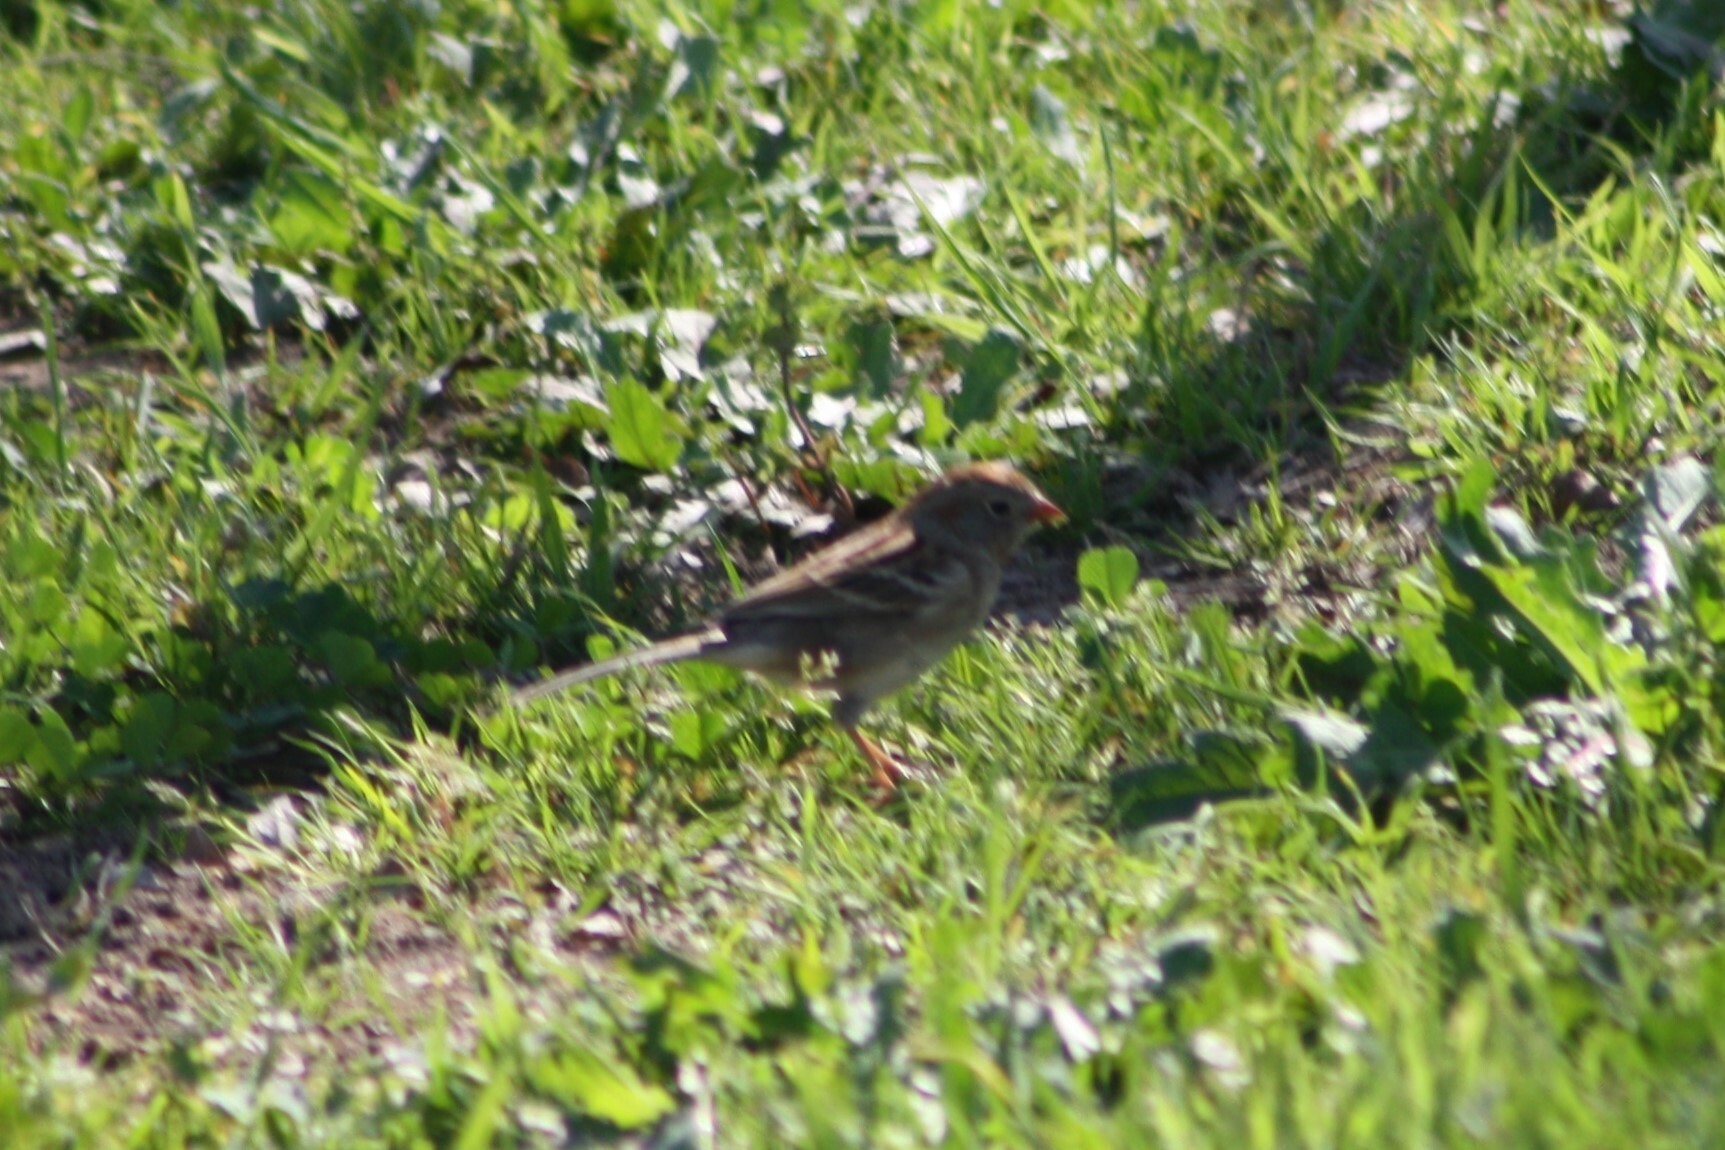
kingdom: Animalia
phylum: Chordata
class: Aves
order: Passeriformes
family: Passerellidae
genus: Spizella
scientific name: Spizella pusilla
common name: Field sparrow
